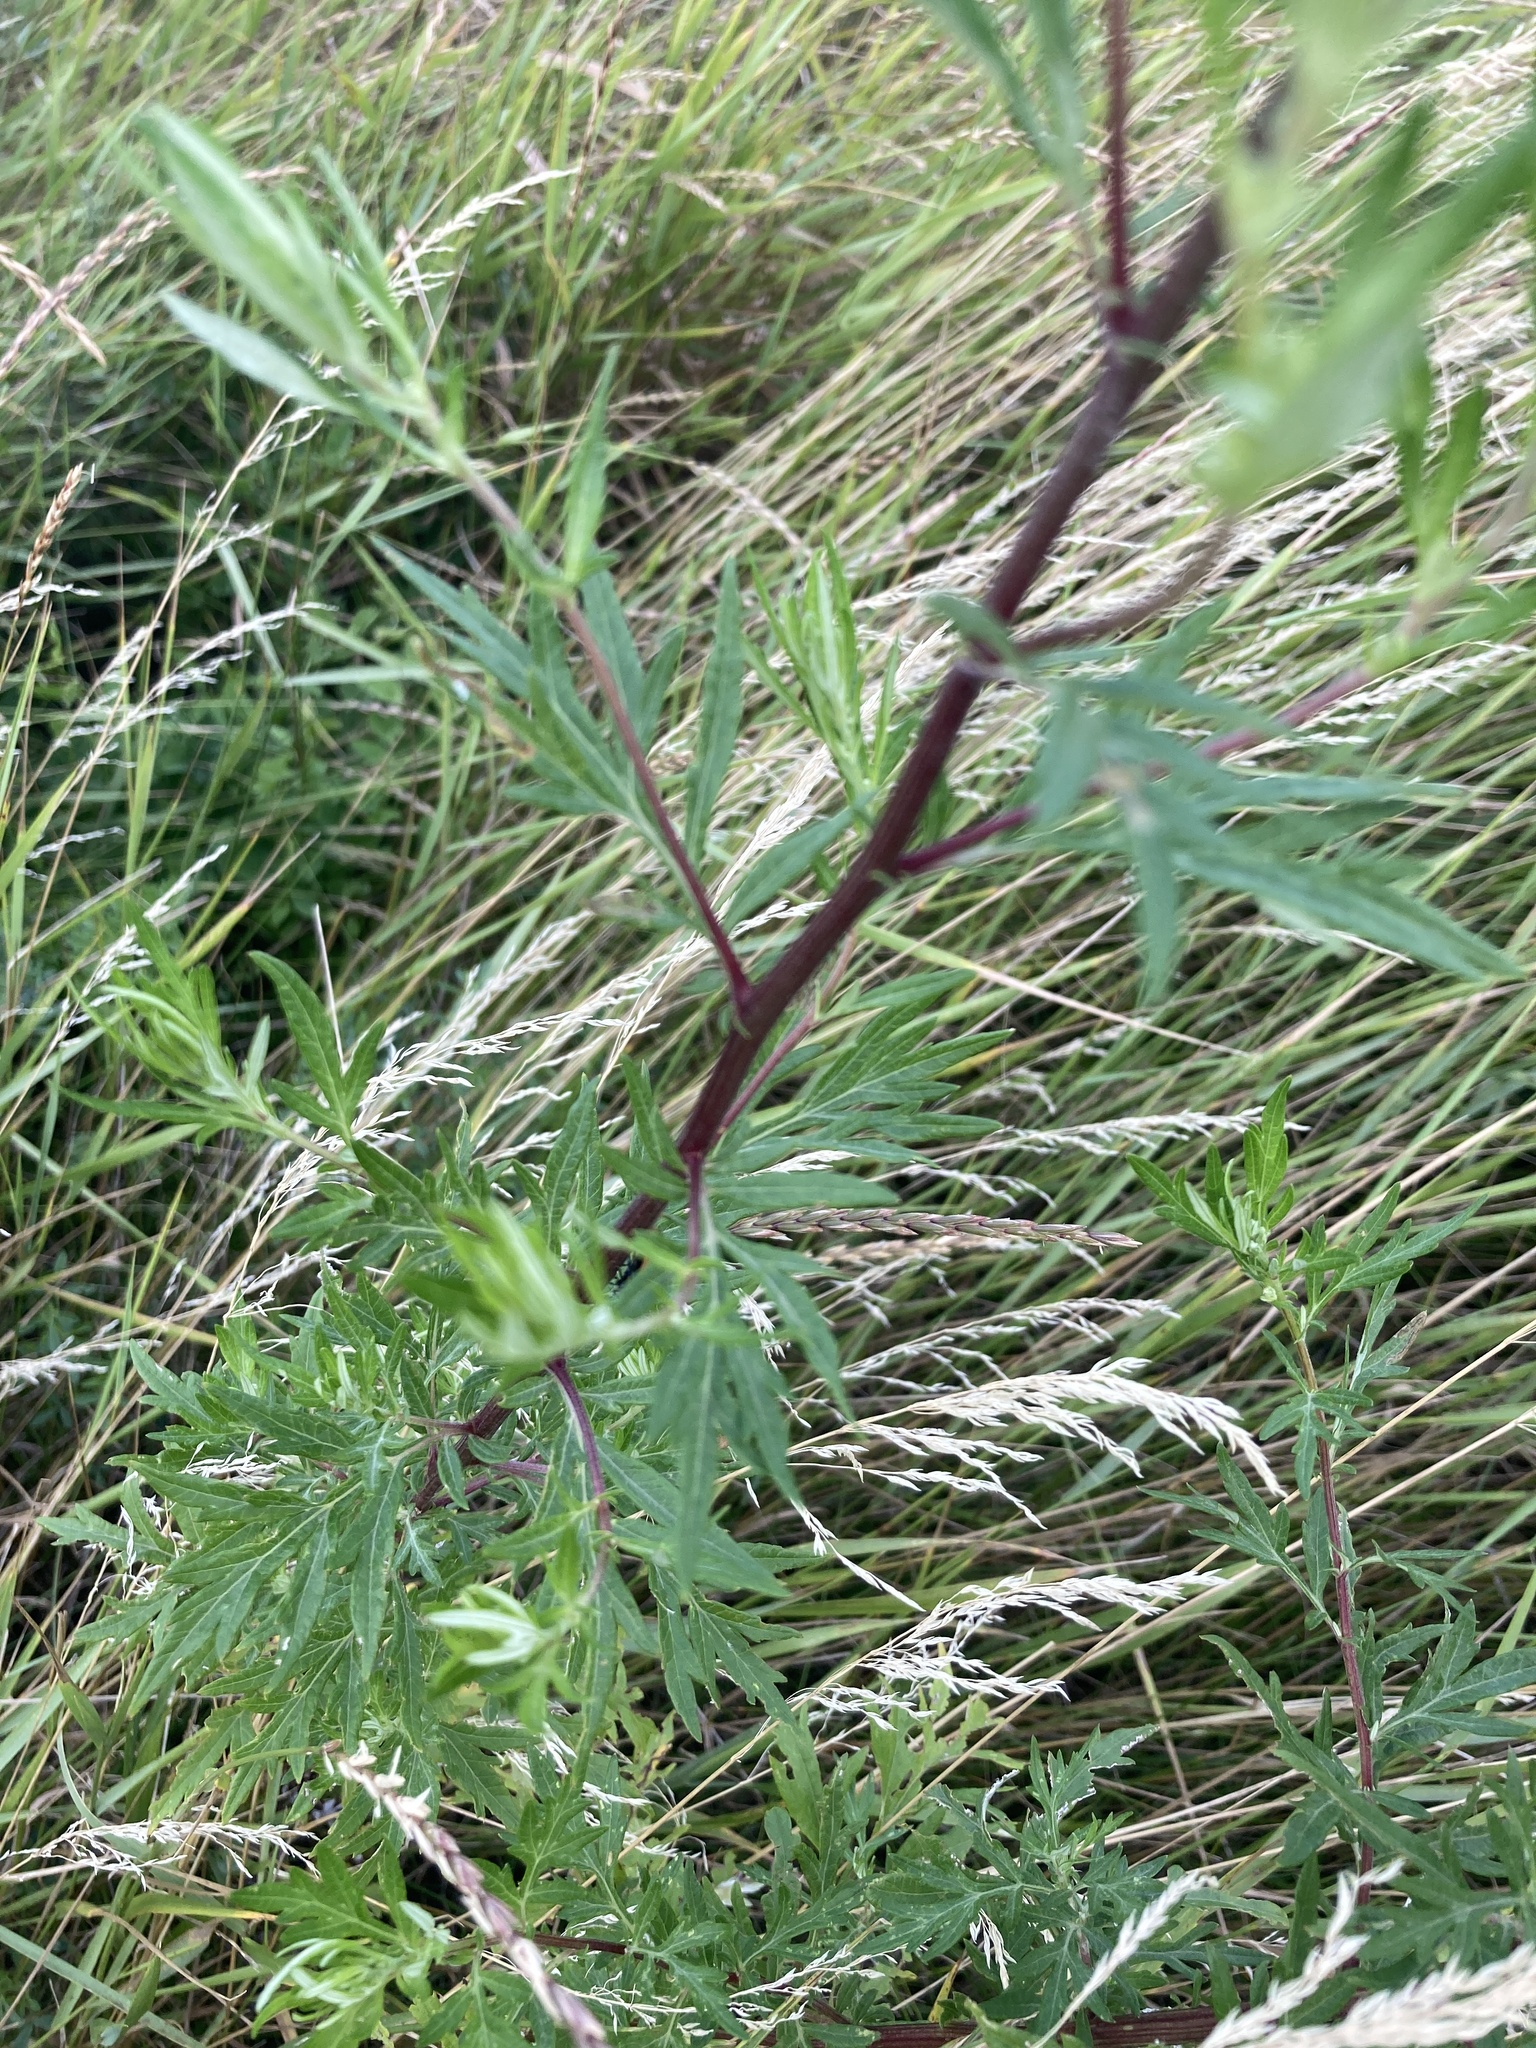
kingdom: Plantae
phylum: Tracheophyta
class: Magnoliopsida
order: Asterales
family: Asteraceae
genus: Artemisia
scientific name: Artemisia vulgaris
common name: Mugwort
